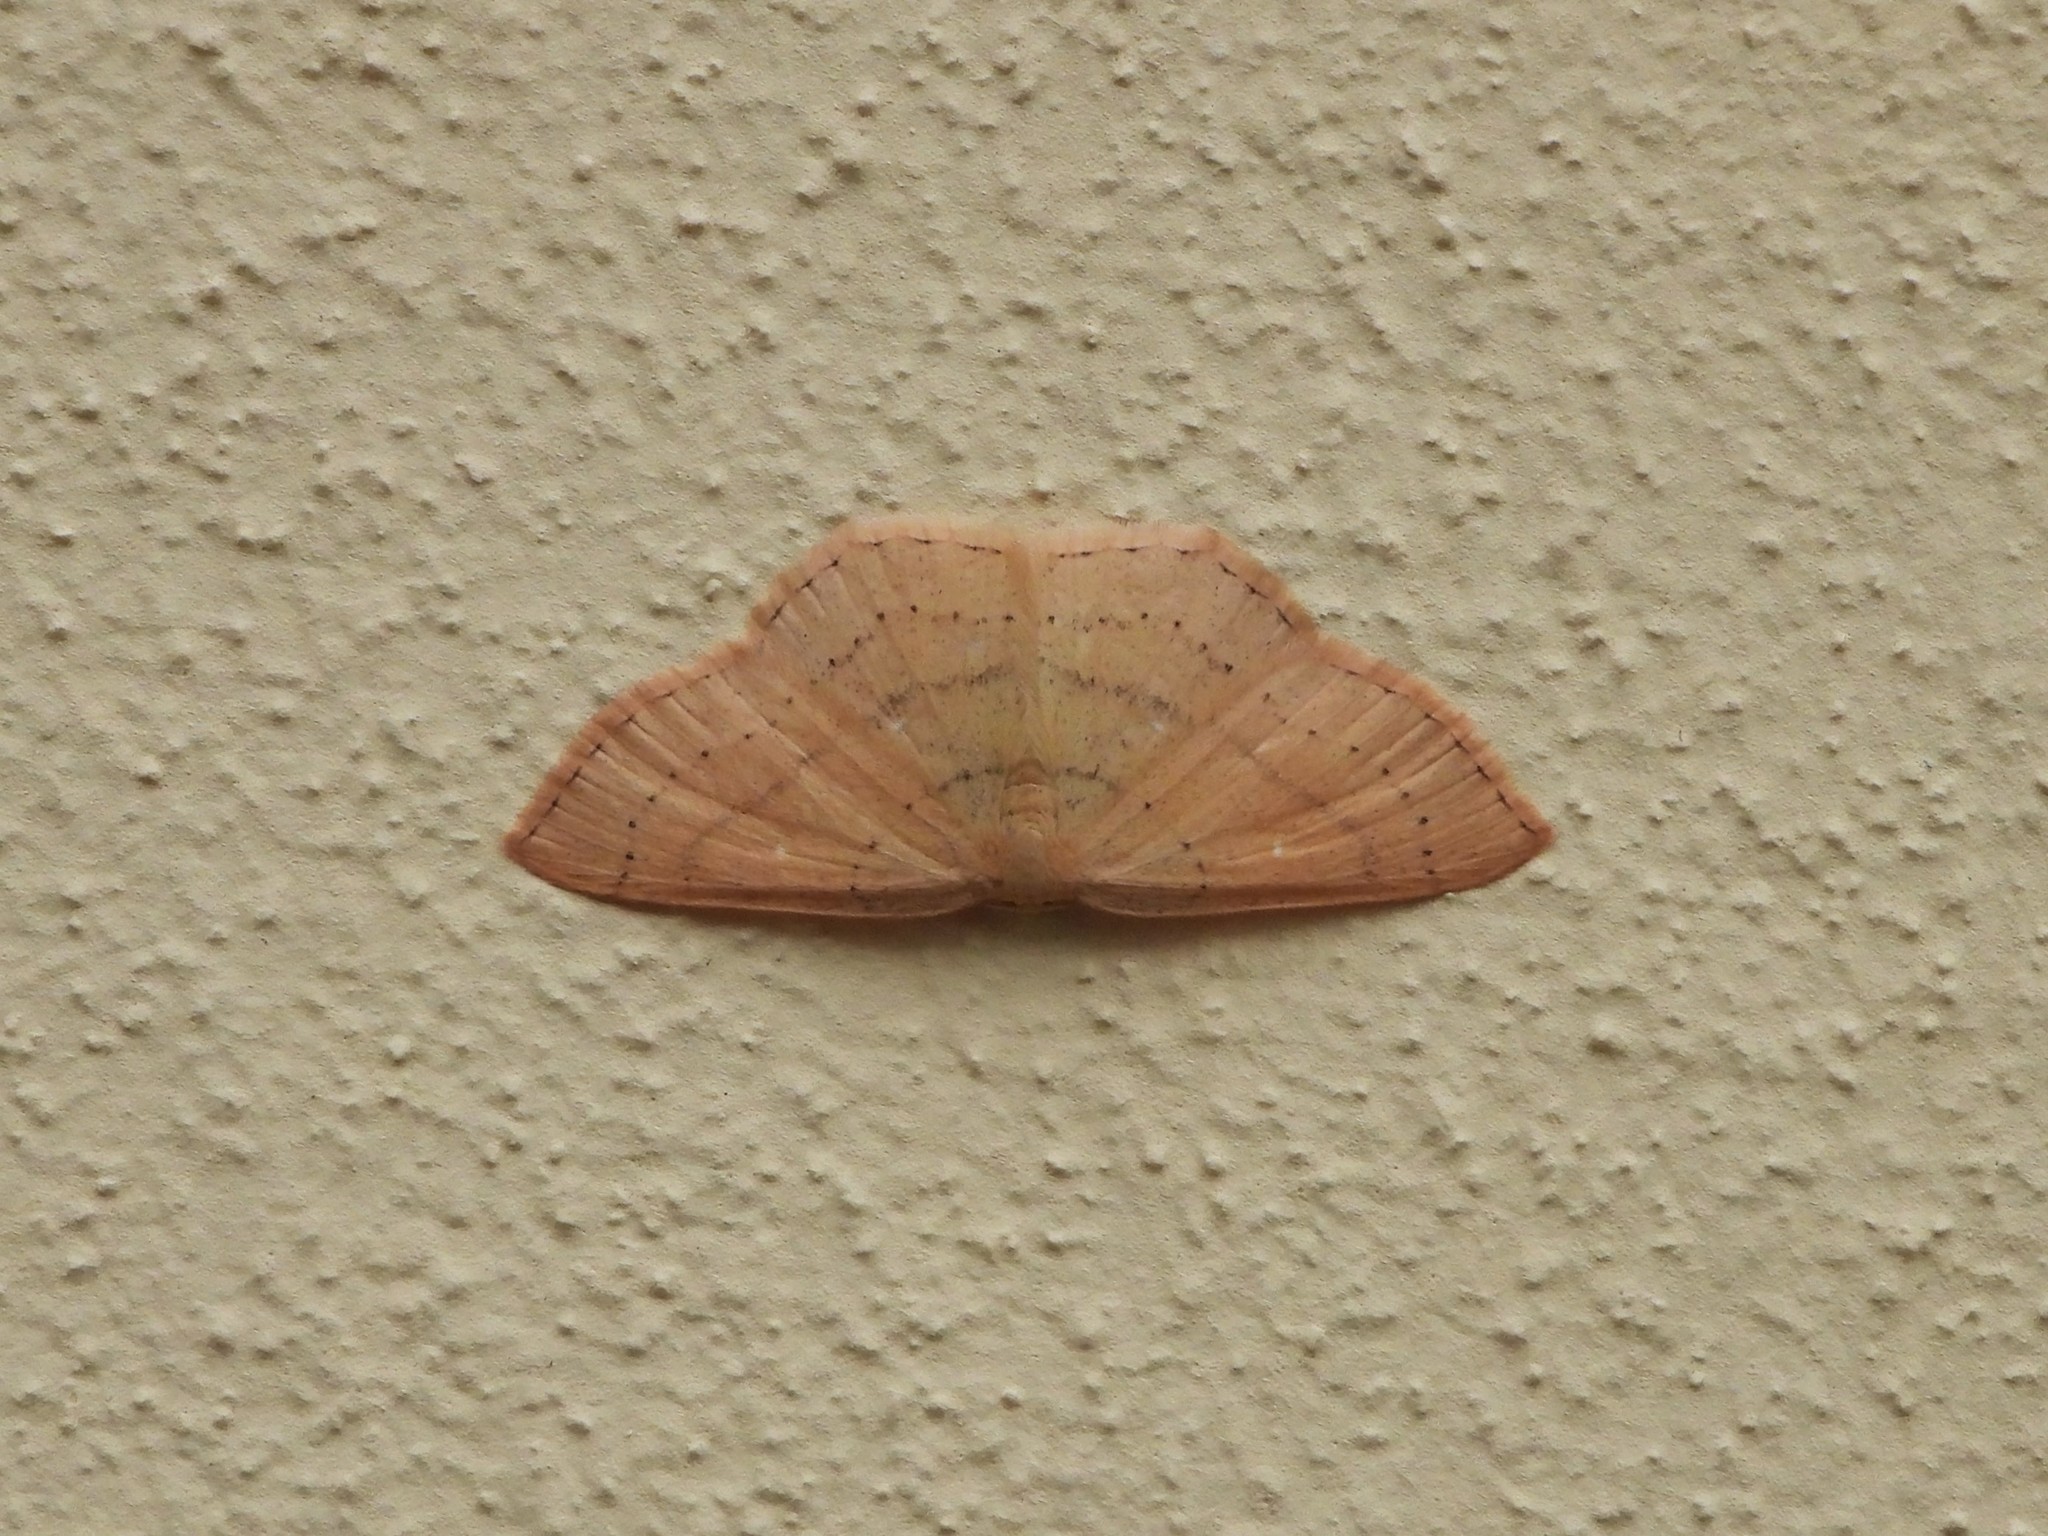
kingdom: Animalia
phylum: Arthropoda
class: Insecta
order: Lepidoptera
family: Geometridae
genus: Cyclophora
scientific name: Cyclophora linearia
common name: Clay triple-lines
